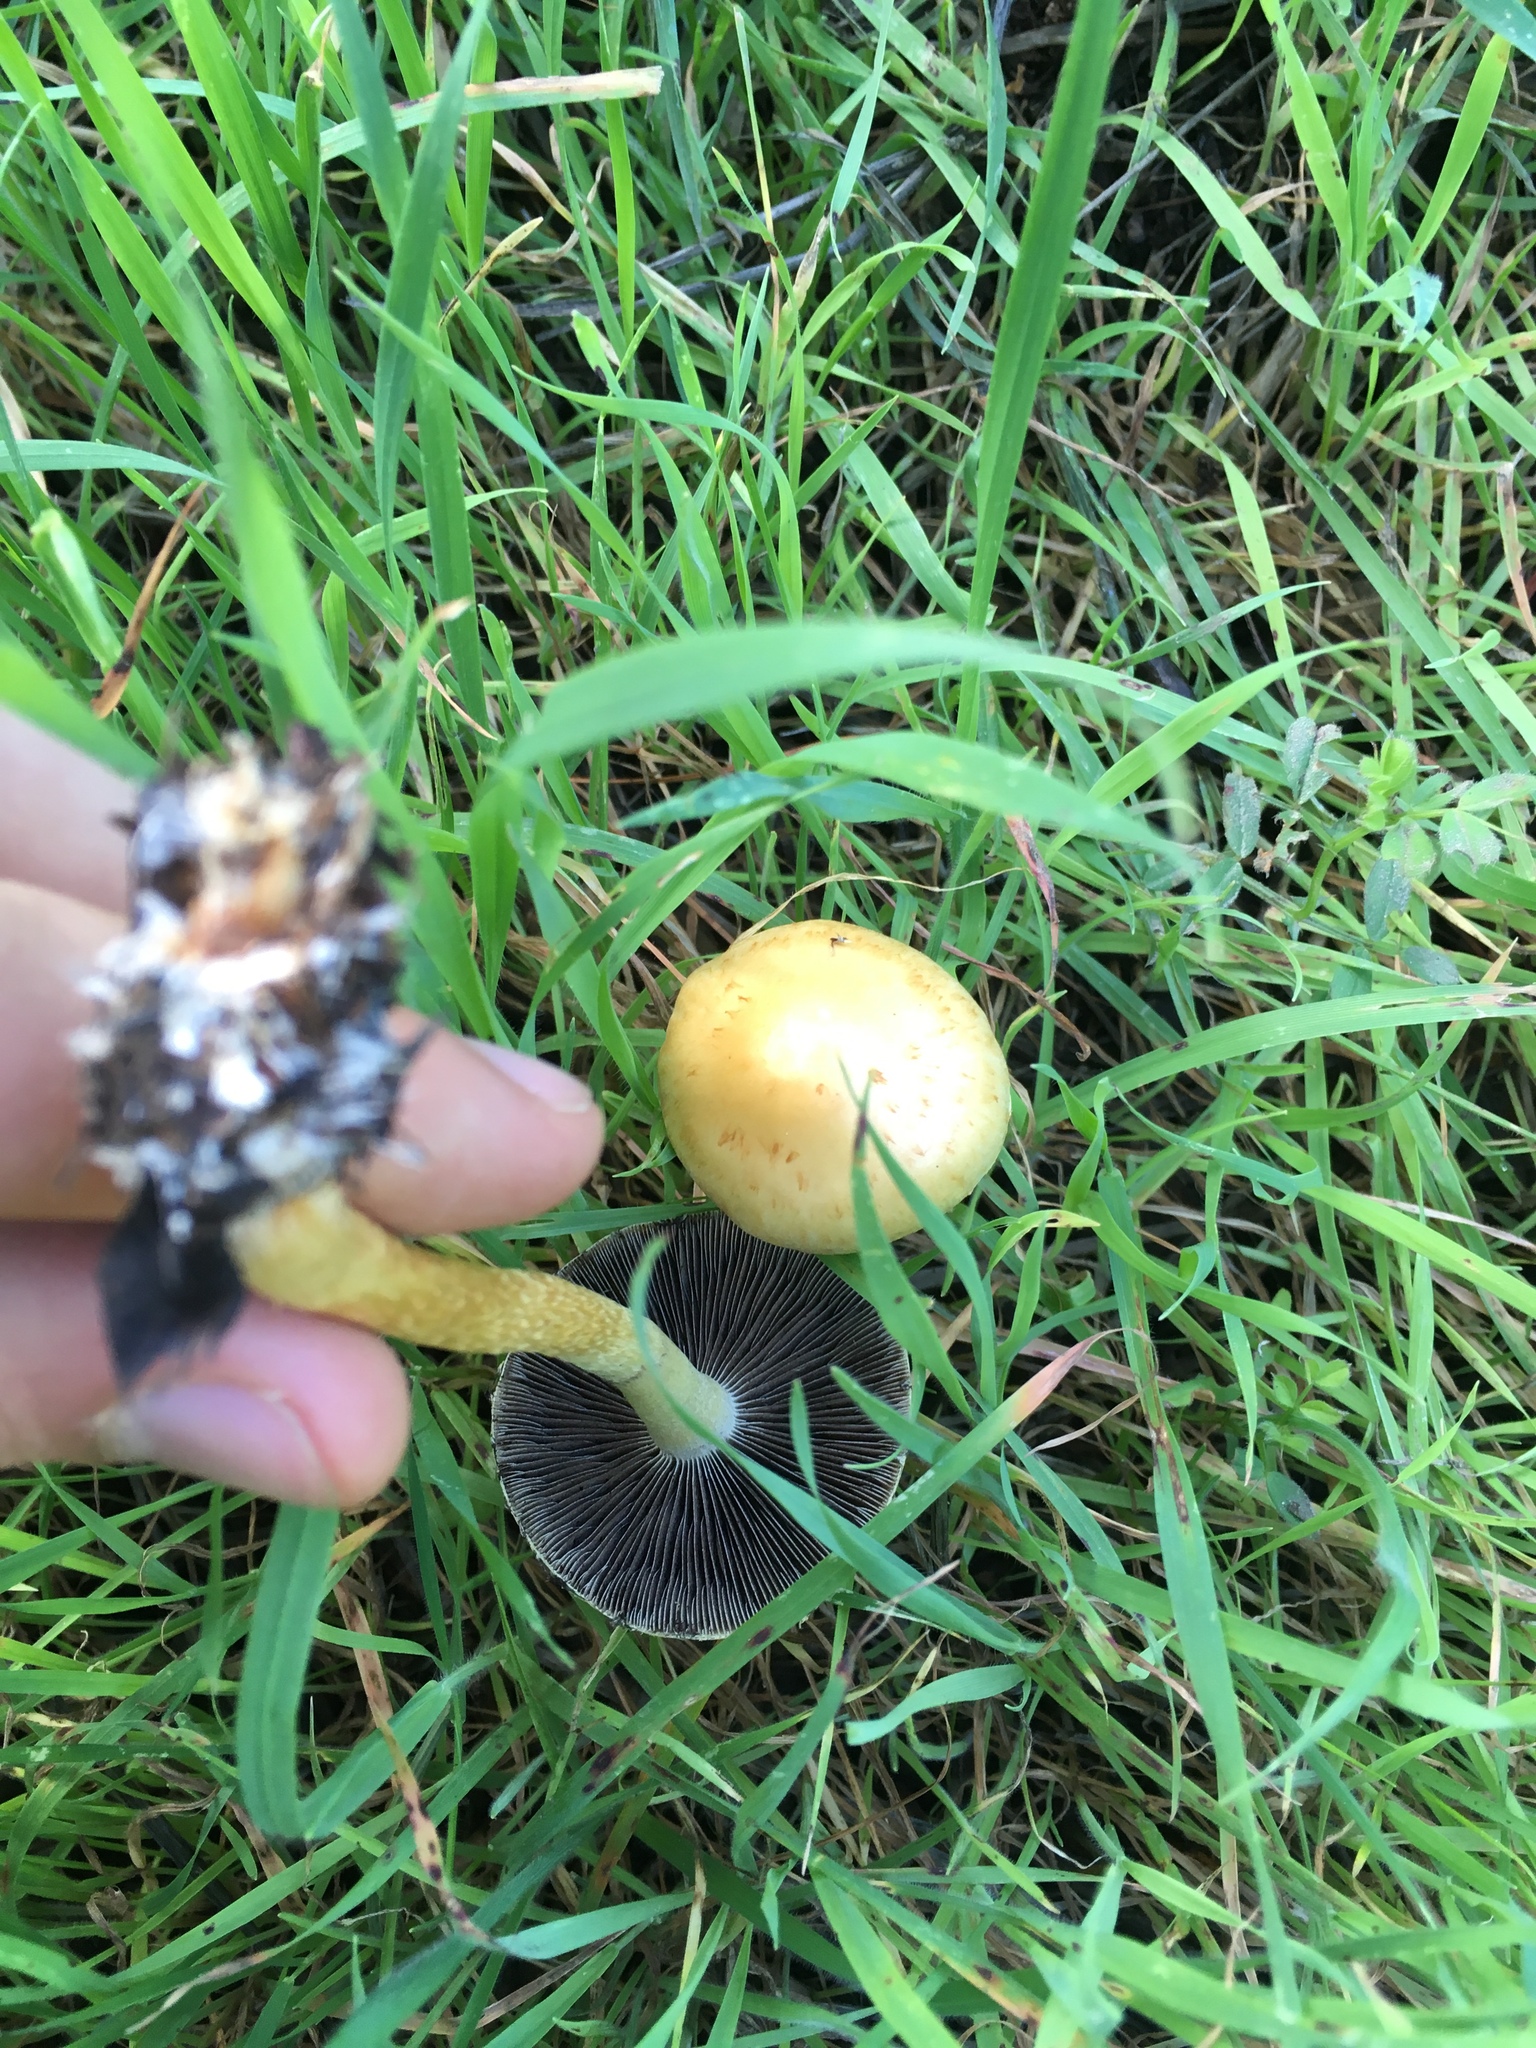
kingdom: Fungi
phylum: Basidiomycota
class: Agaricomycetes
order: Agaricales
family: Strophariaceae
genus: Leratiomyces
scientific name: Leratiomyces percevalii
